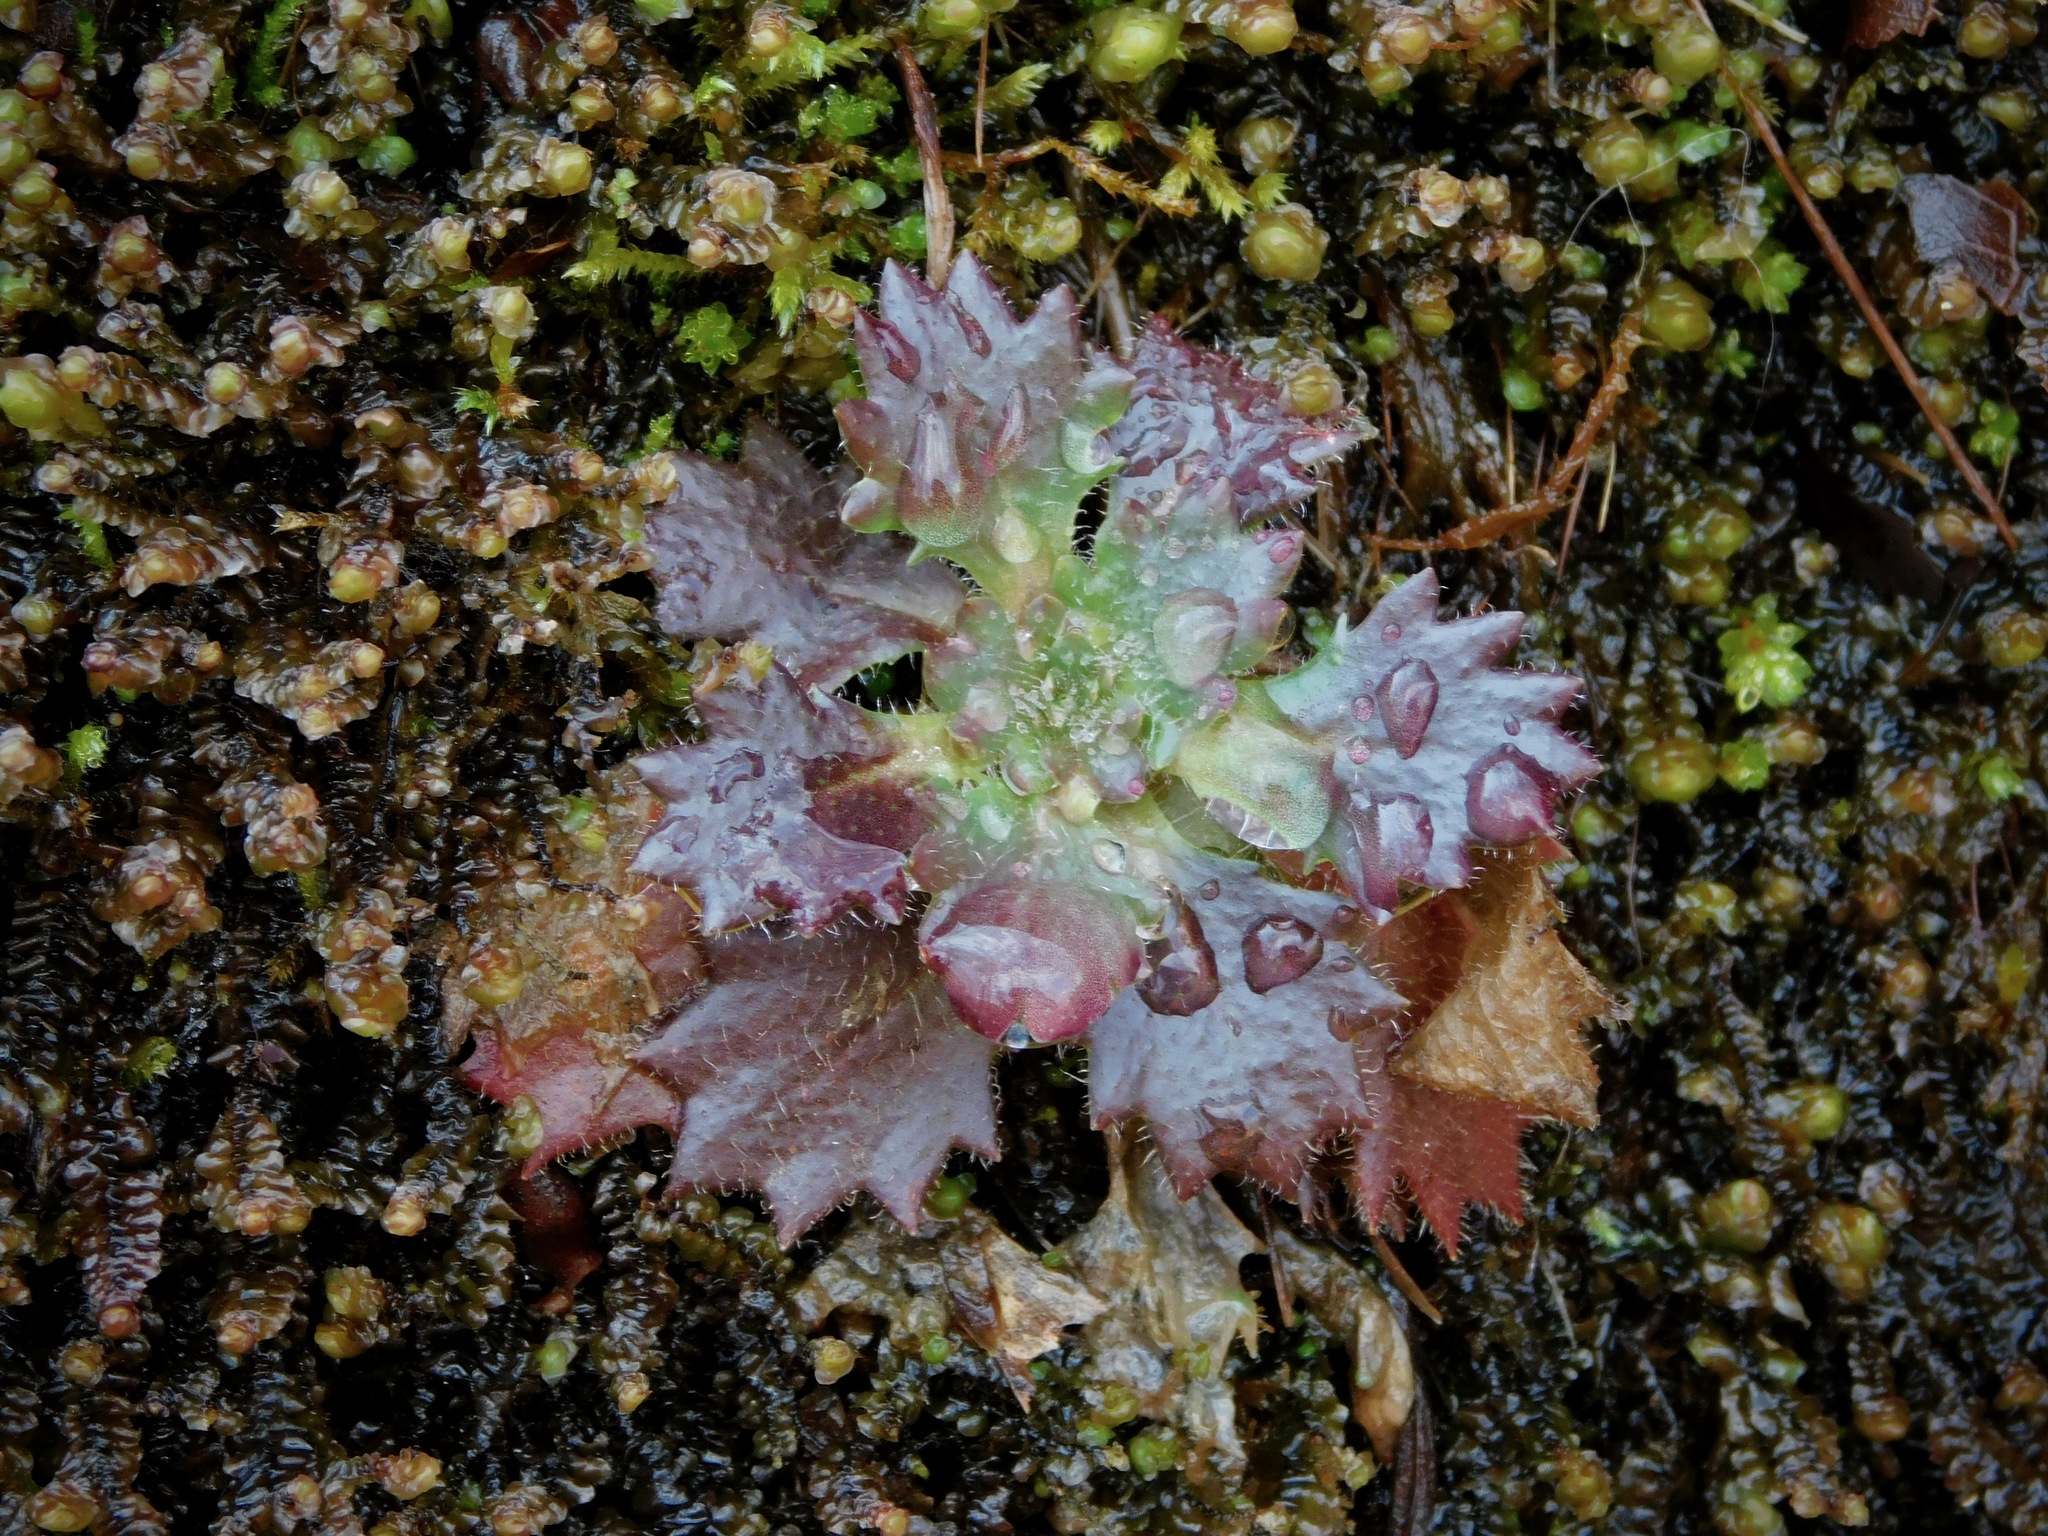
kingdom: Plantae
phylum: Tracheophyta
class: Magnoliopsida
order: Saxifragales
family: Saxifragaceae
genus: Micranthes
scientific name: Micranthes petiolaris
